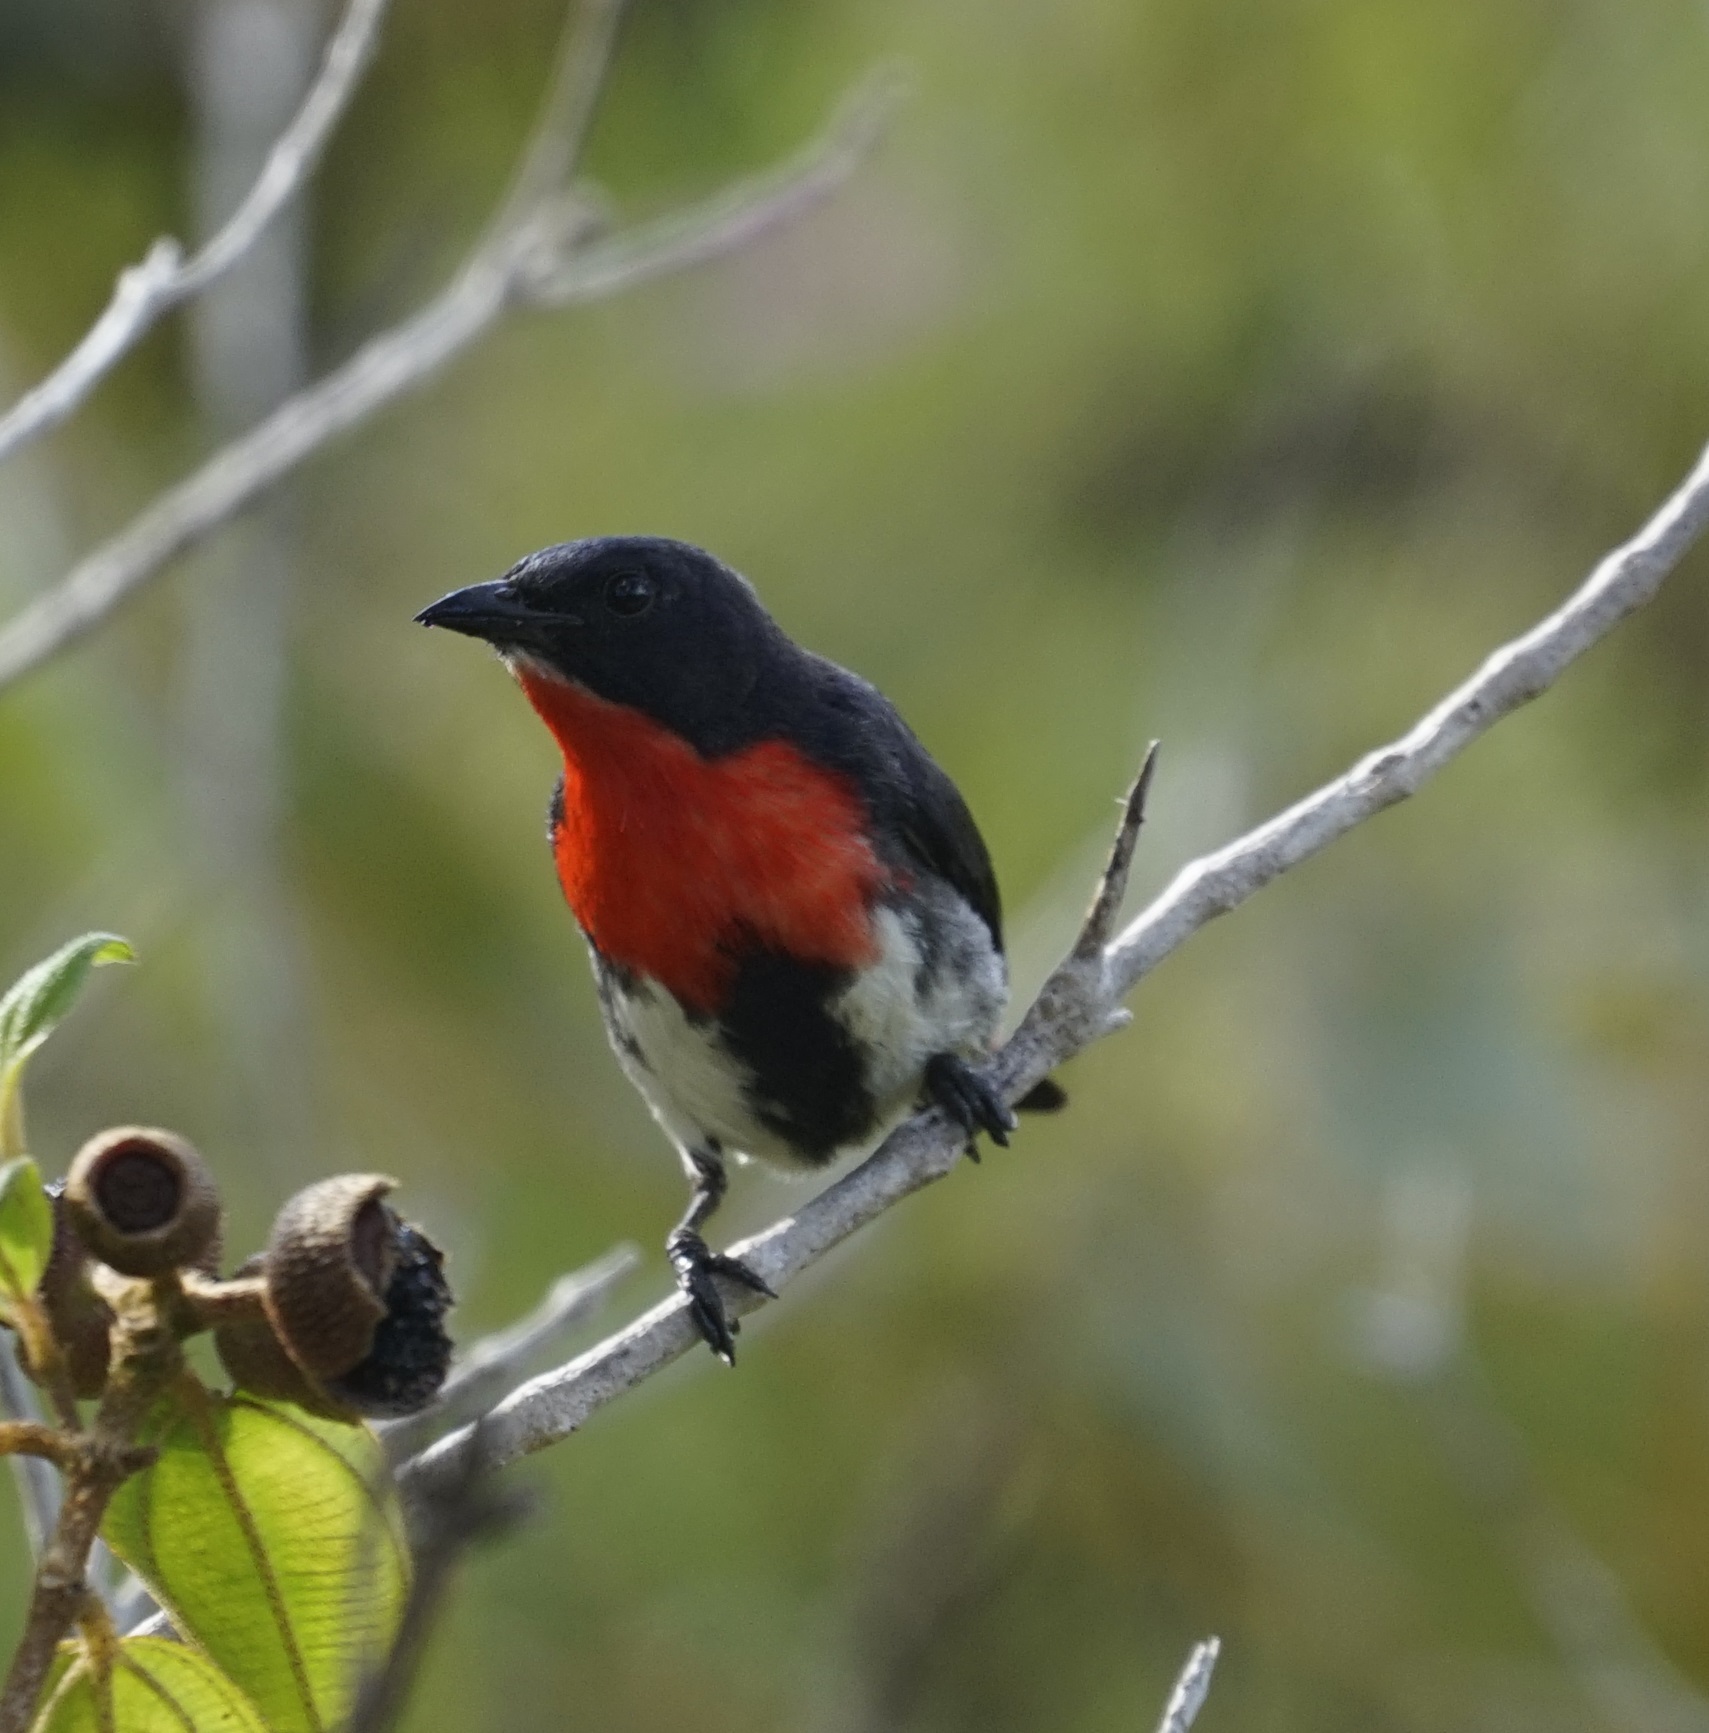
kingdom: Animalia
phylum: Chordata
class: Aves
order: Passeriformes
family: Dicaeidae
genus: Dicaeum
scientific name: Dicaeum hirundinaceum
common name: Mistletoebird
